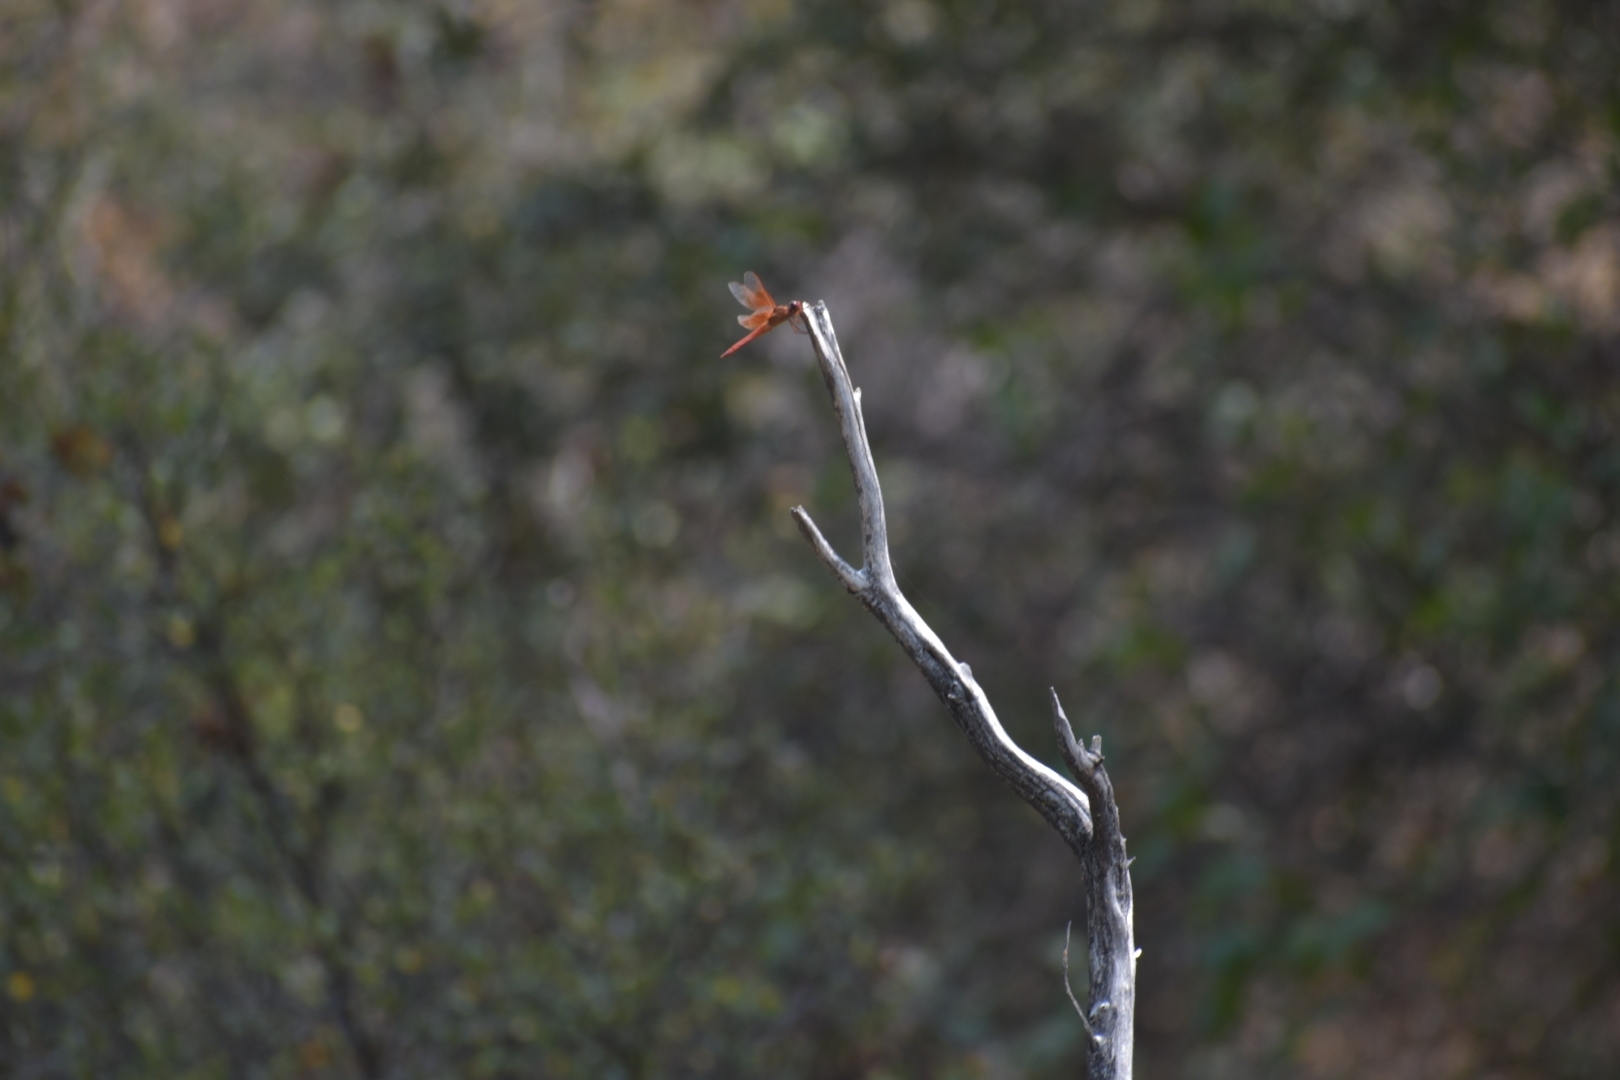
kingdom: Animalia
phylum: Arthropoda
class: Insecta
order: Odonata
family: Libellulidae
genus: Libellula
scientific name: Libellula saturata
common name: Flame skimmer
